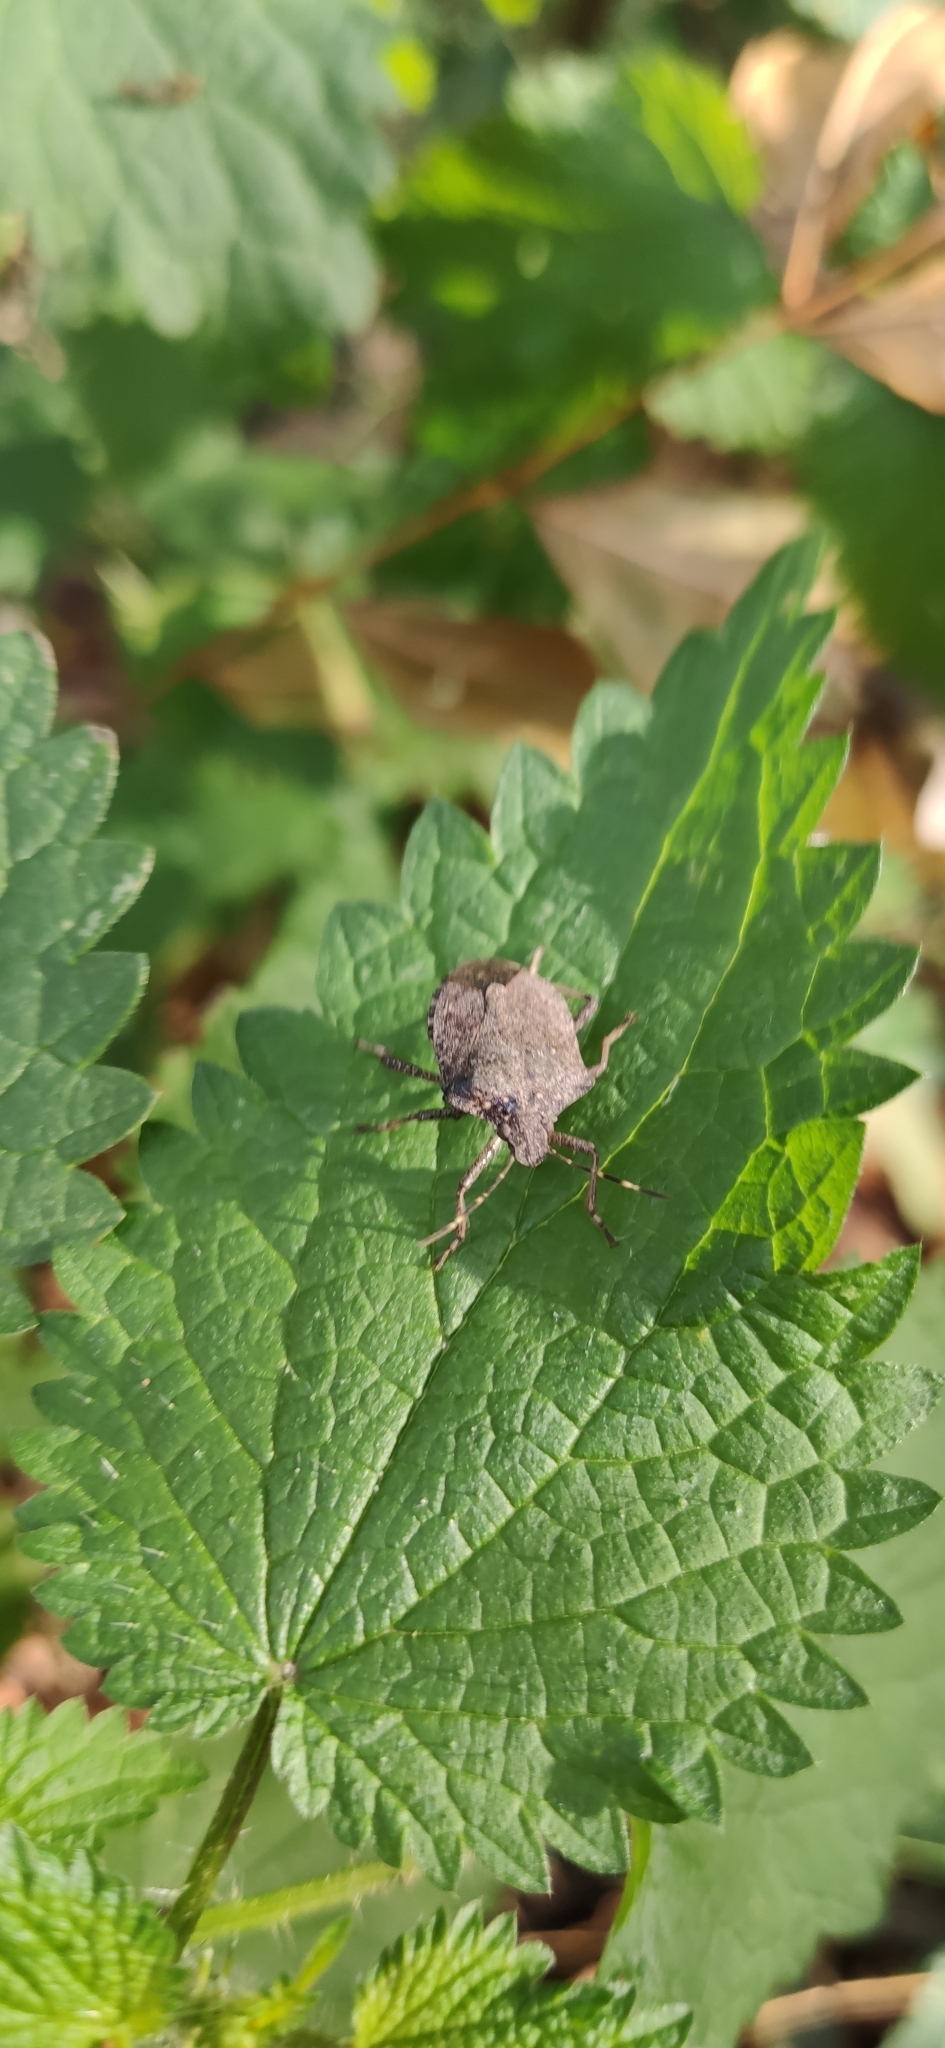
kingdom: Animalia
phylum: Arthropoda
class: Insecta
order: Hemiptera
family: Pentatomidae
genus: Halyomorpha
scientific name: Halyomorpha halys
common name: Brown marmorated stink bug
